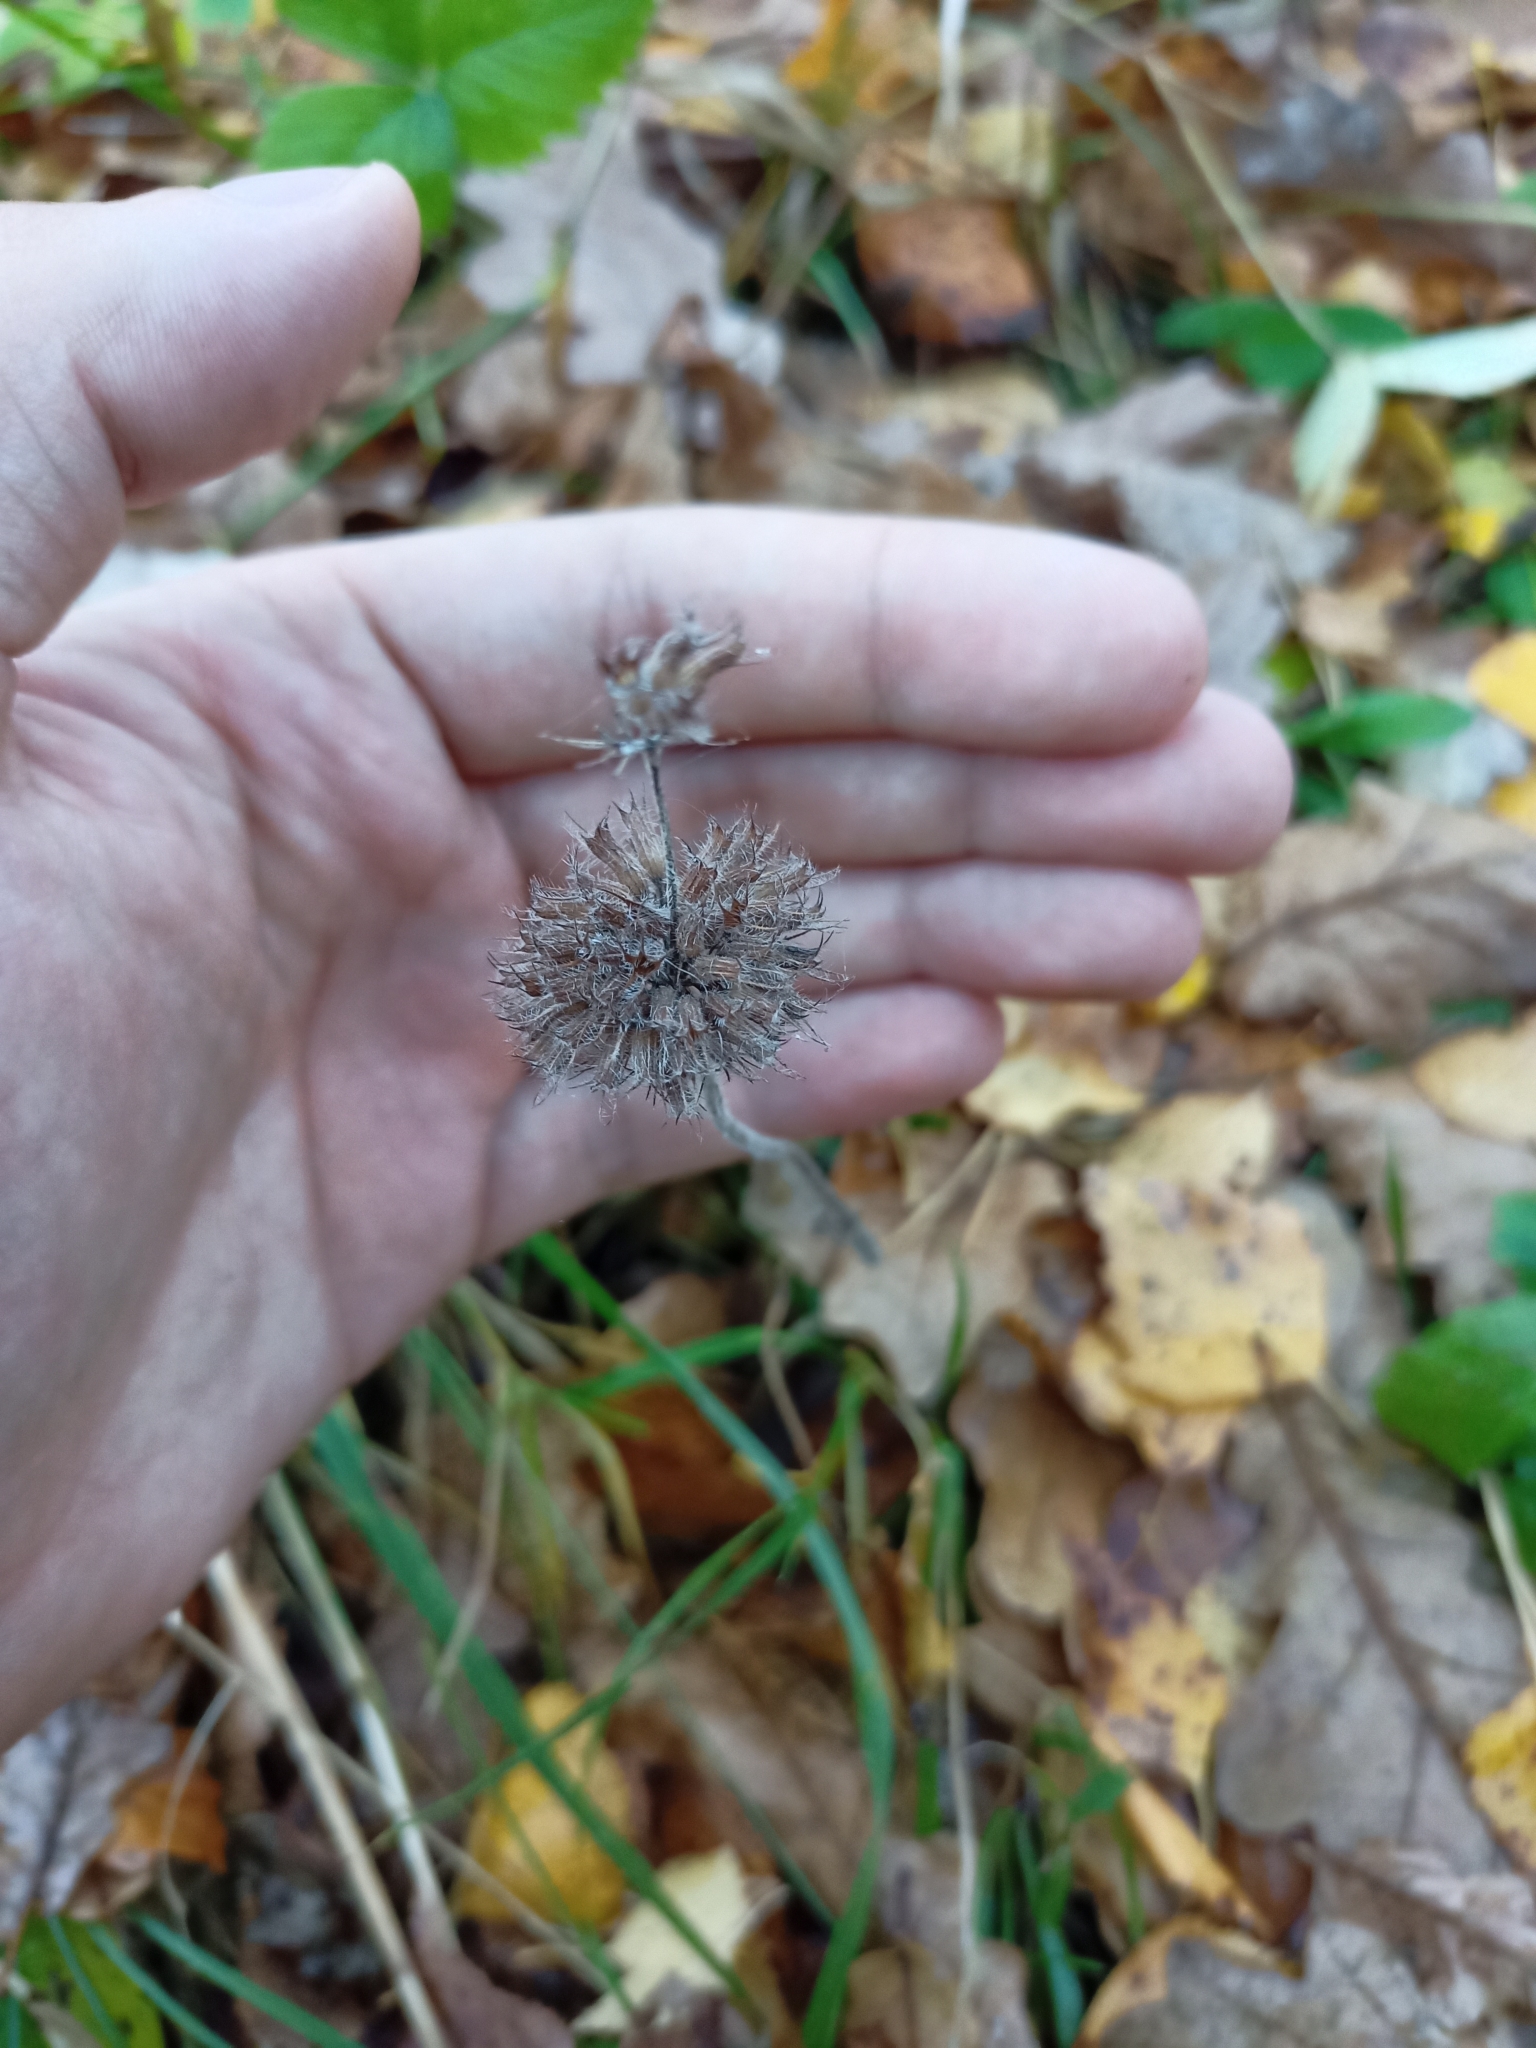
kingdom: Plantae
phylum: Tracheophyta
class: Magnoliopsida
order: Lamiales
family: Lamiaceae
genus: Clinopodium
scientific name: Clinopodium vulgare
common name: Wild basil
